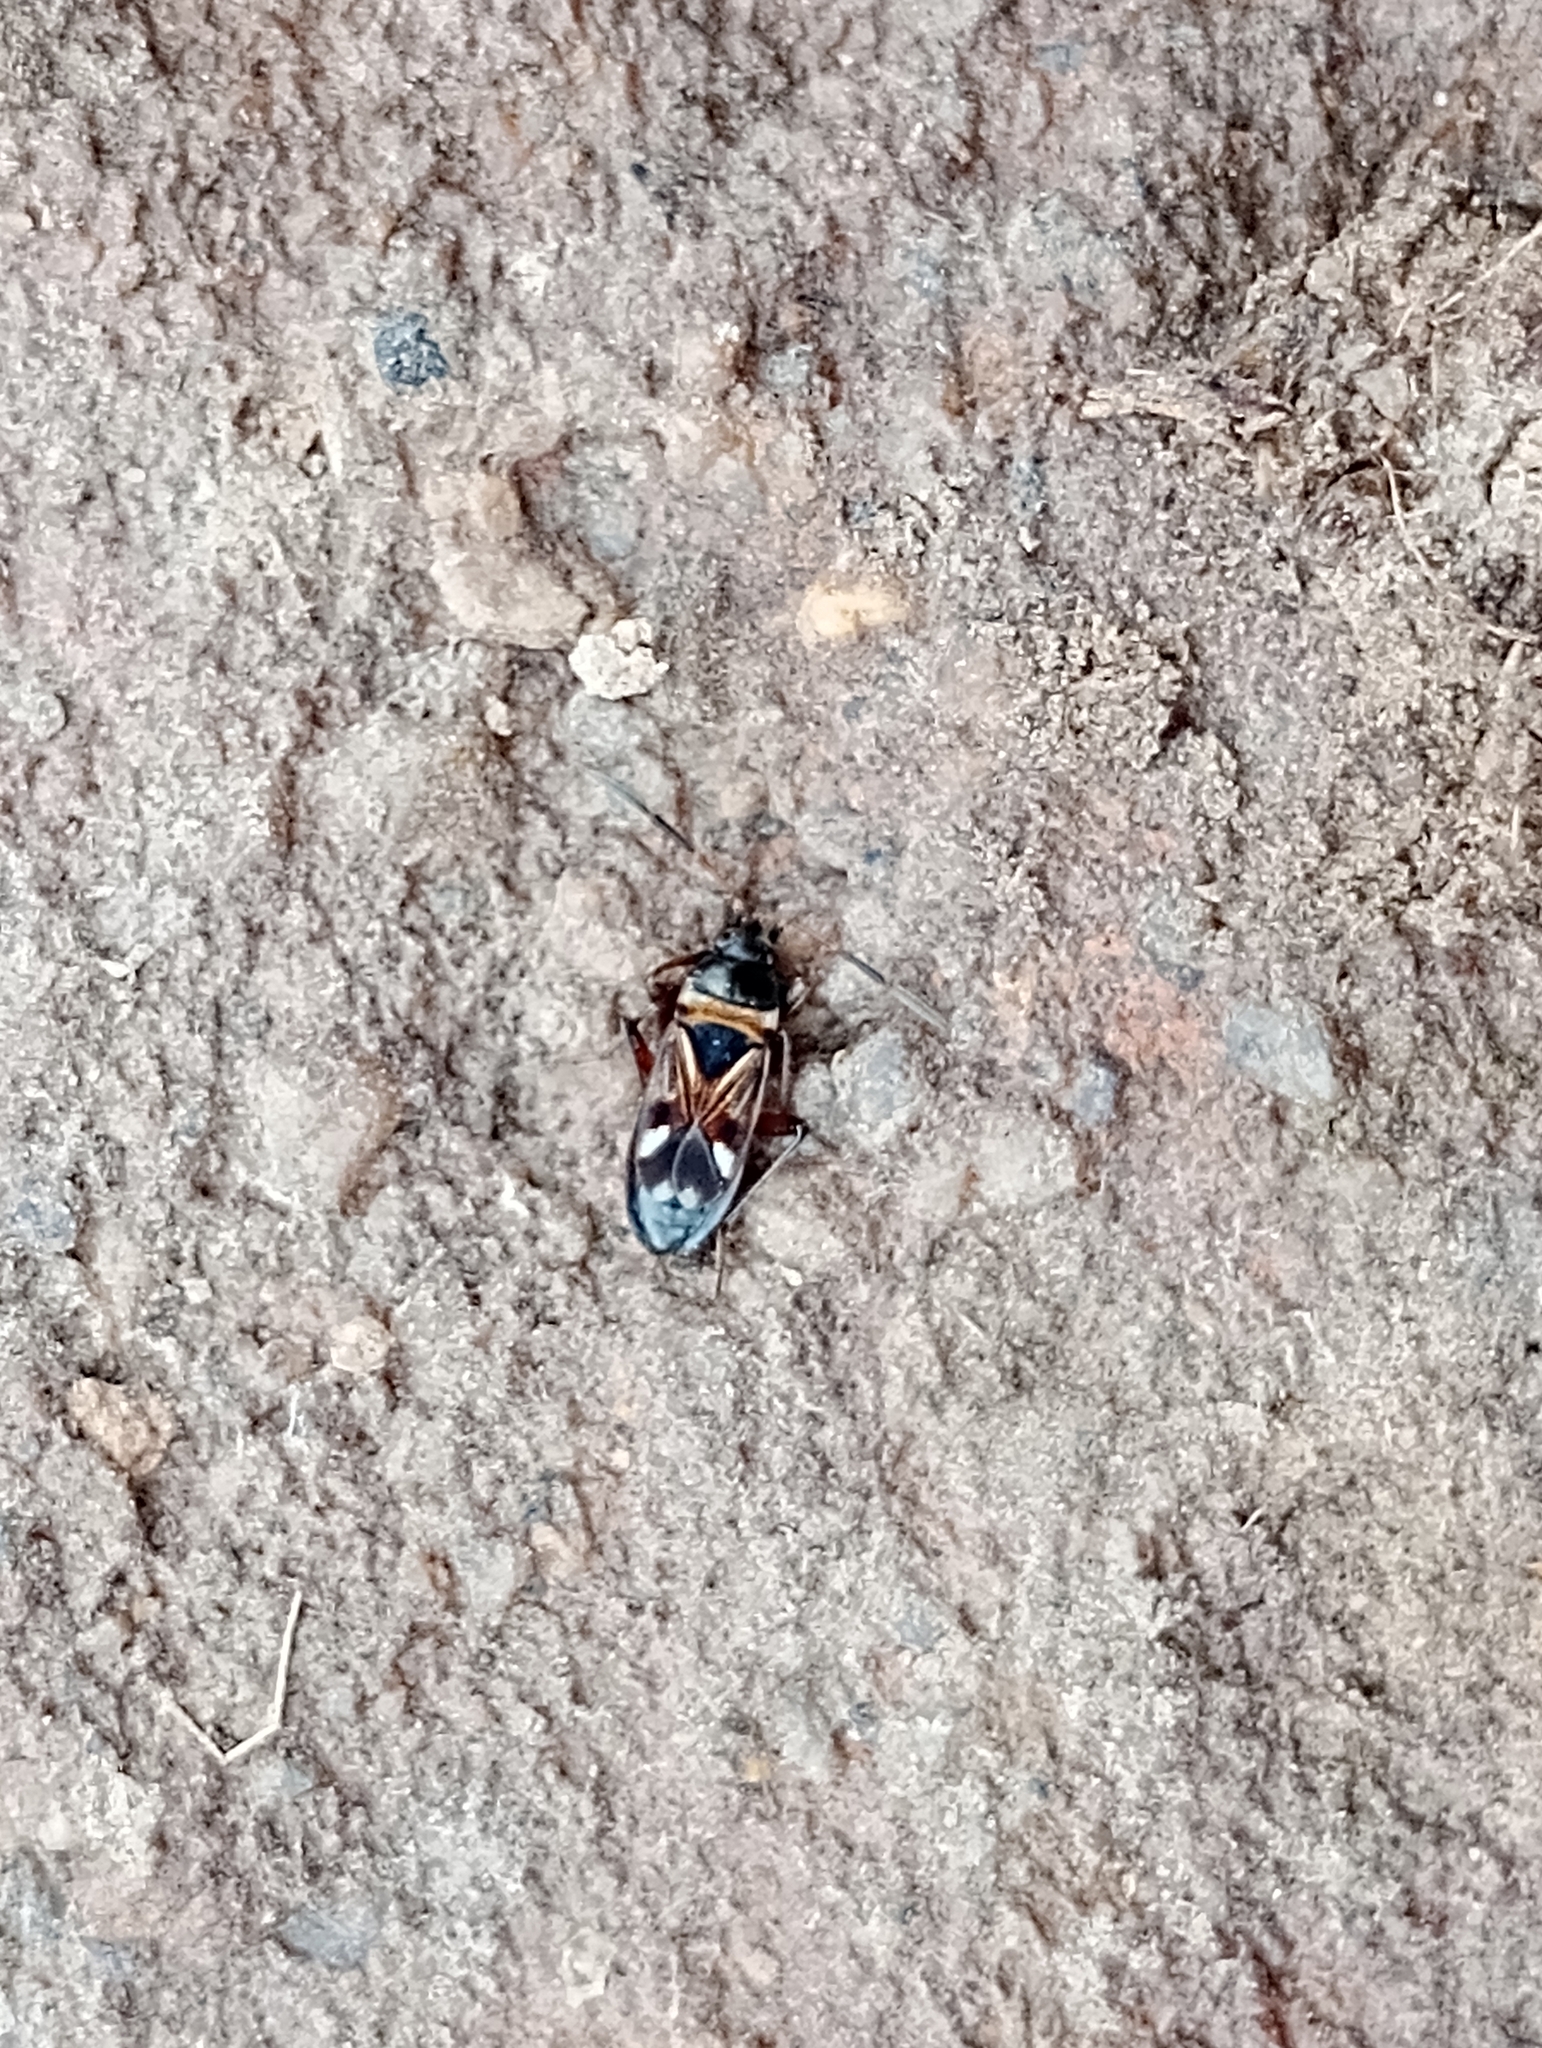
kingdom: Animalia
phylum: Arthropoda
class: Insecta
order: Hemiptera
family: Rhyparochromidae
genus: Raglius
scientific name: Raglius alboacuminatus
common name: Dirt-colored seed bug
